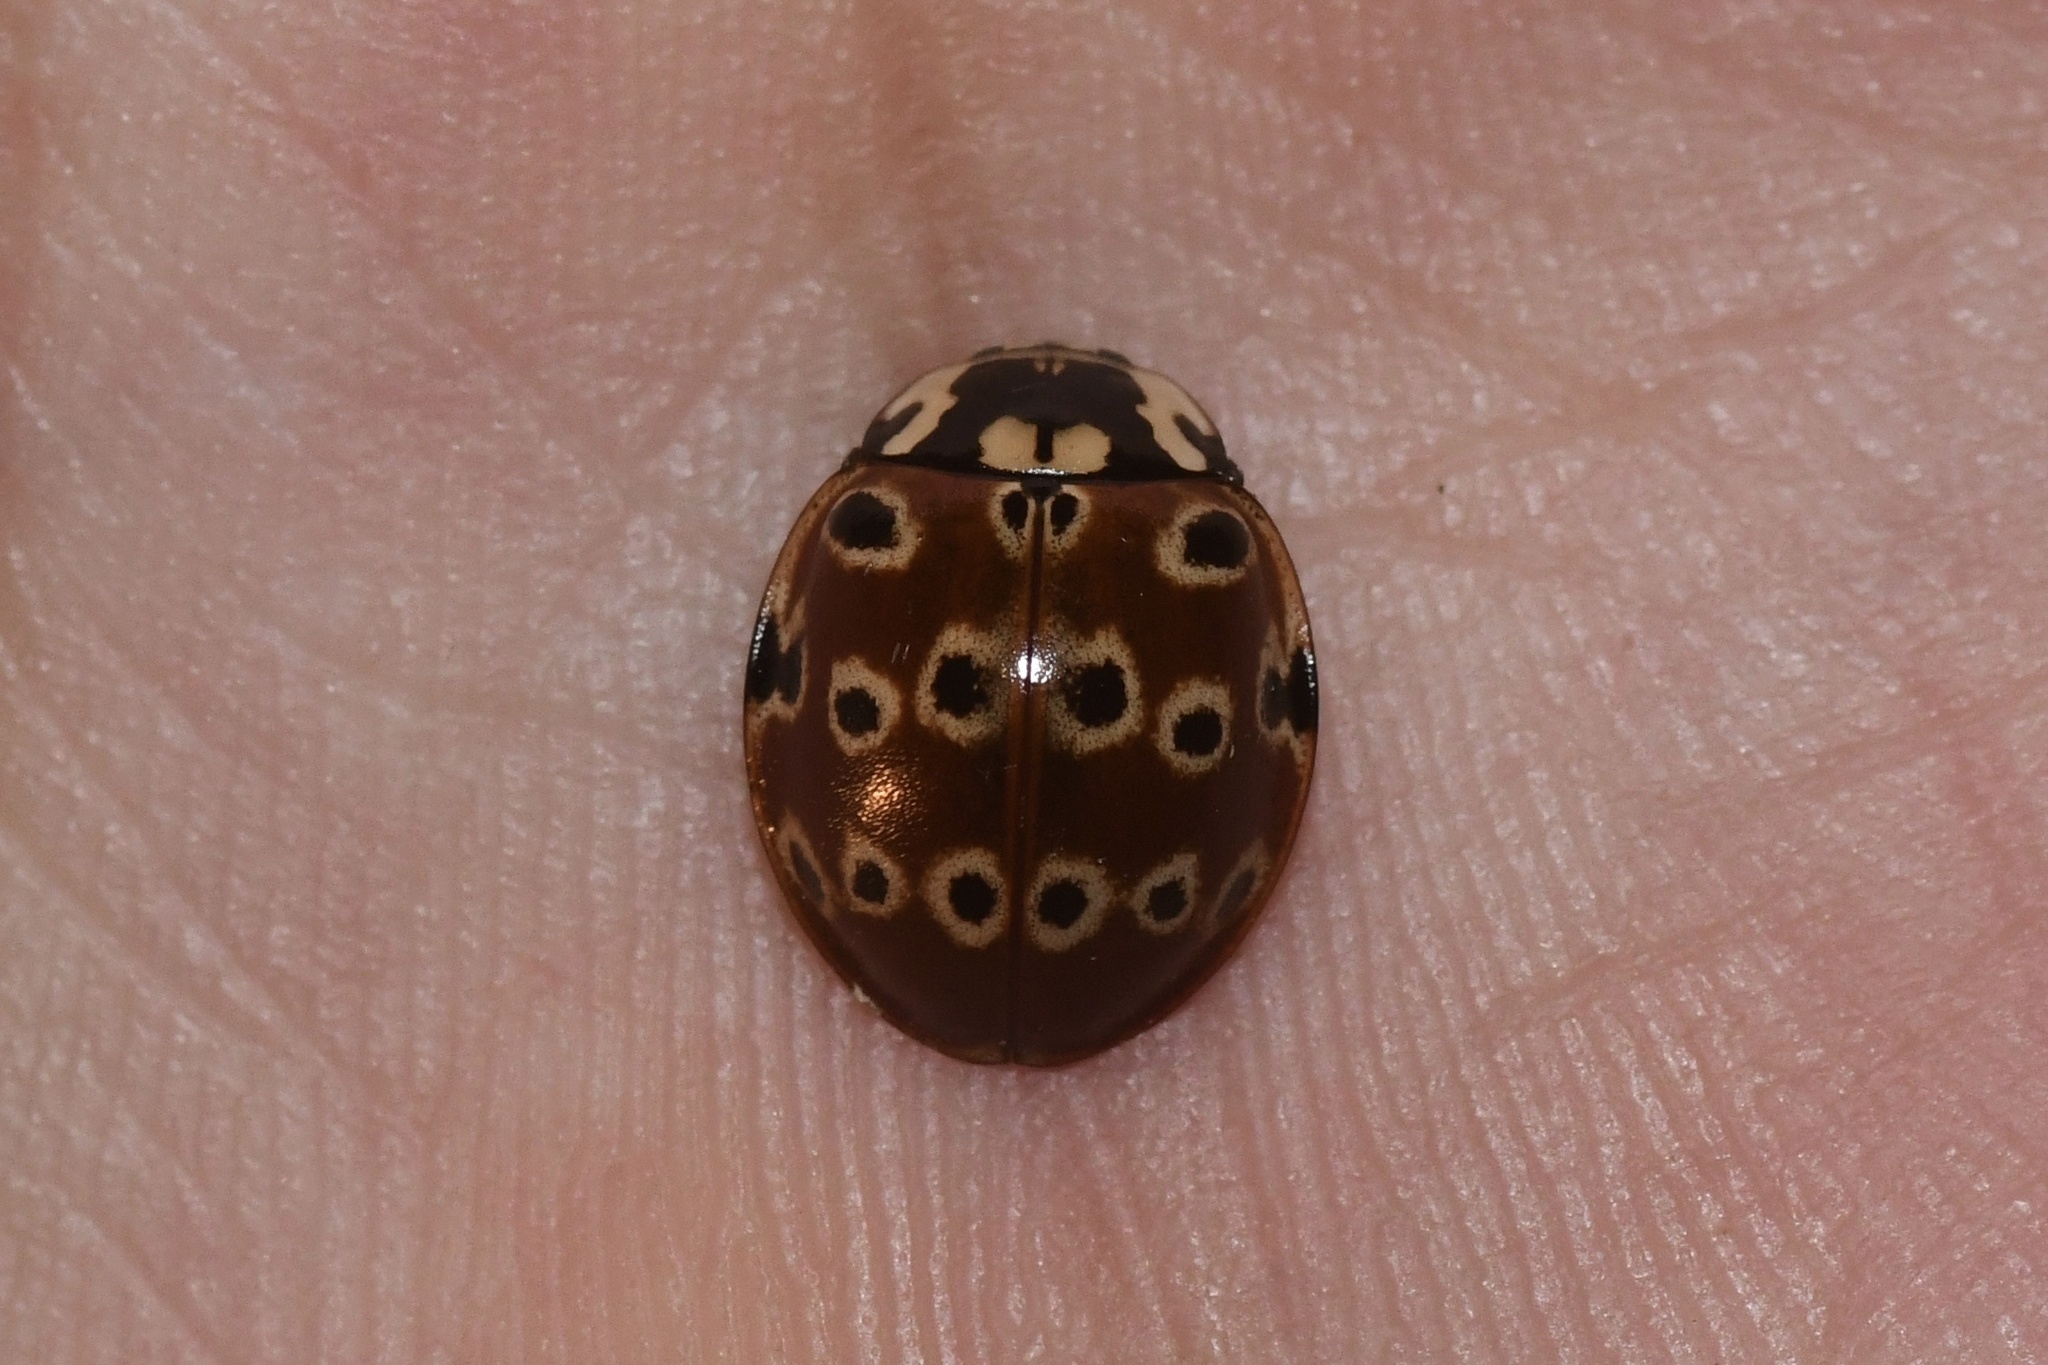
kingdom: Animalia
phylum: Arthropoda
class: Insecta
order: Coleoptera
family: Coccinellidae
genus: Anatis
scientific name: Anatis mali
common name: Eye-spotted lady beetle
